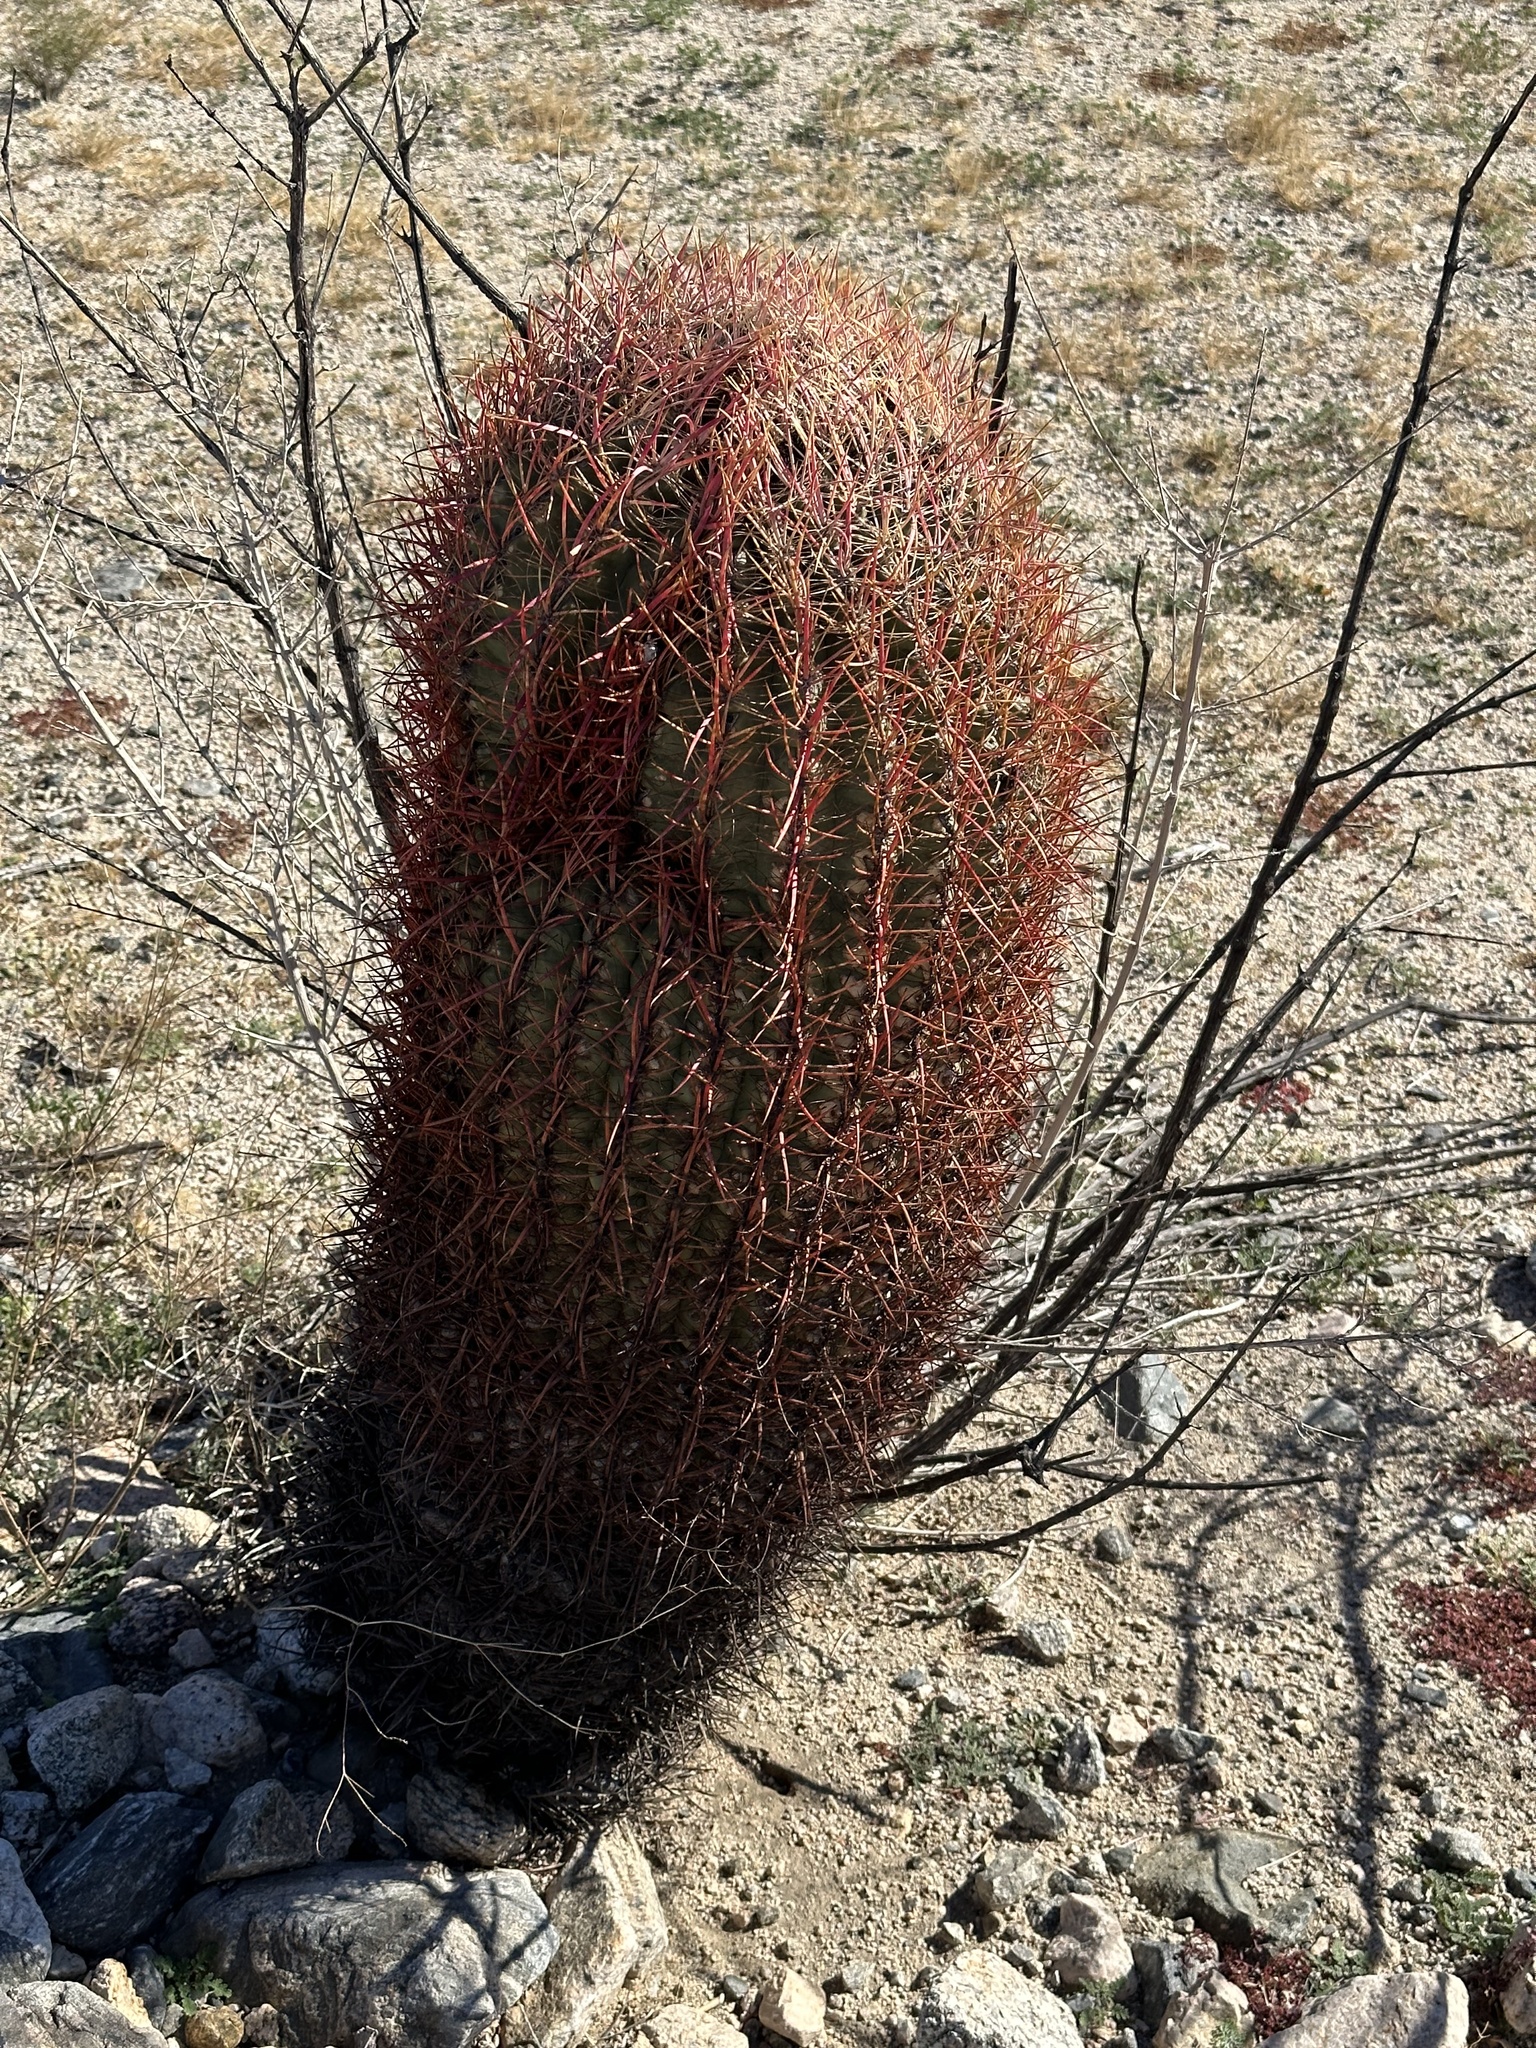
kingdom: Plantae
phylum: Tracheophyta
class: Magnoliopsida
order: Caryophyllales
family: Cactaceae
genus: Ferocactus
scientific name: Ferocactus cylindraceus
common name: California barrel cactus
